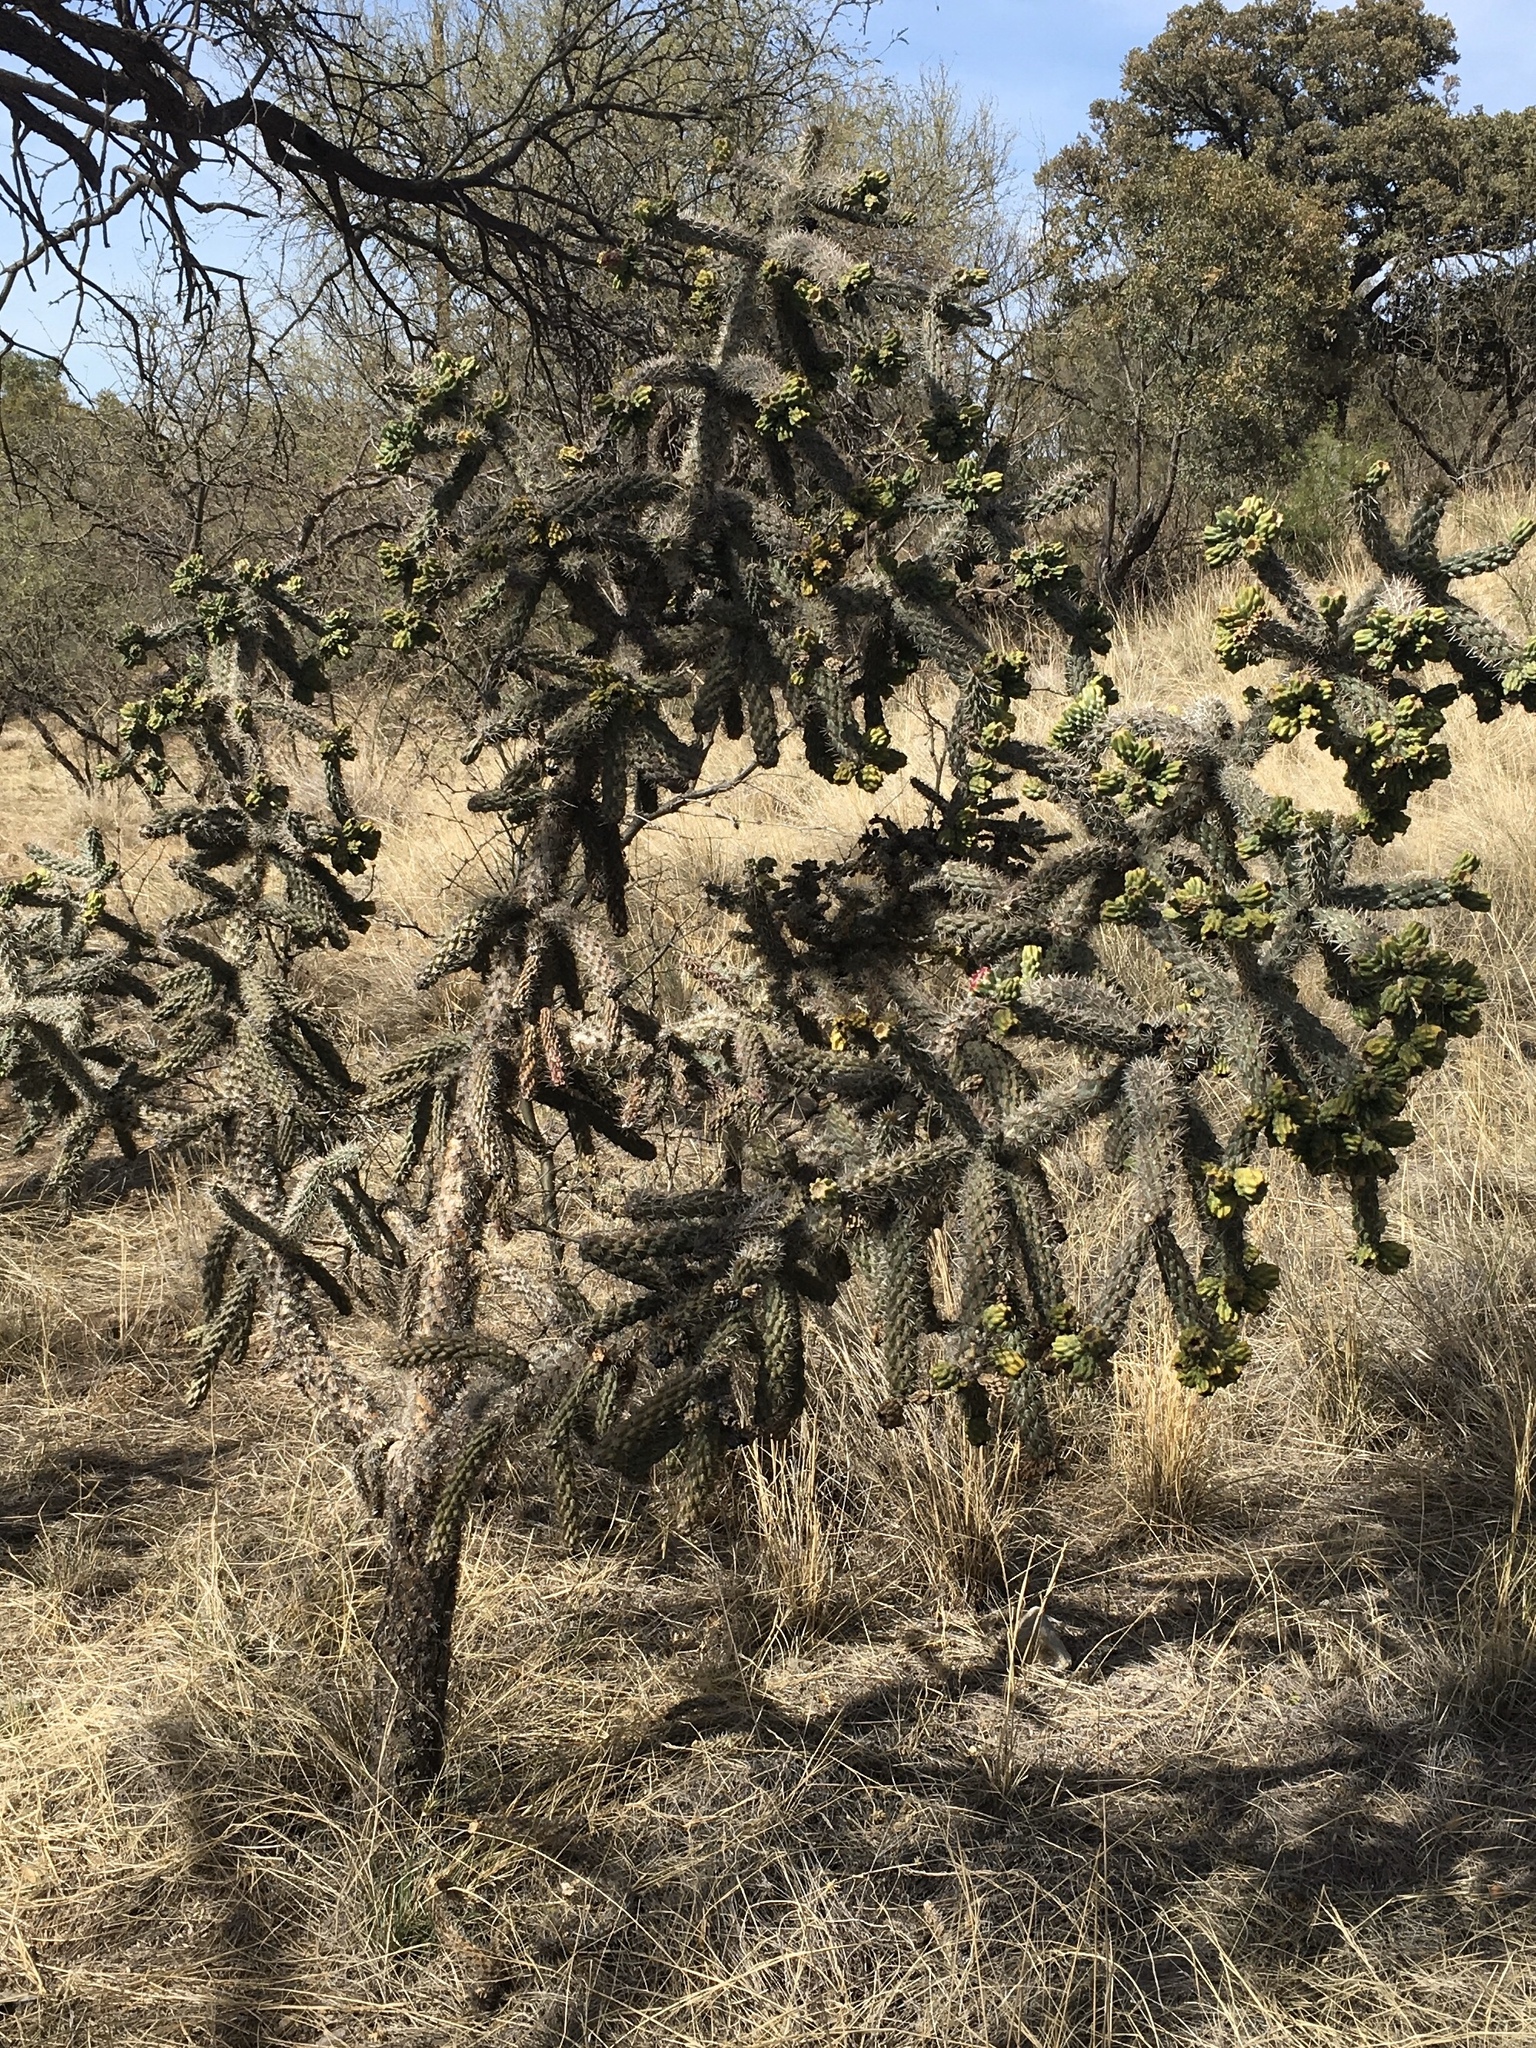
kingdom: Plantae
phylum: Tracheophyta
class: Magnoliopsida
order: Caryophyllales
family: Cactaceae
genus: Cylindropuntia
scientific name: Cylindropuntia imbricata
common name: Candelabrum cactus
